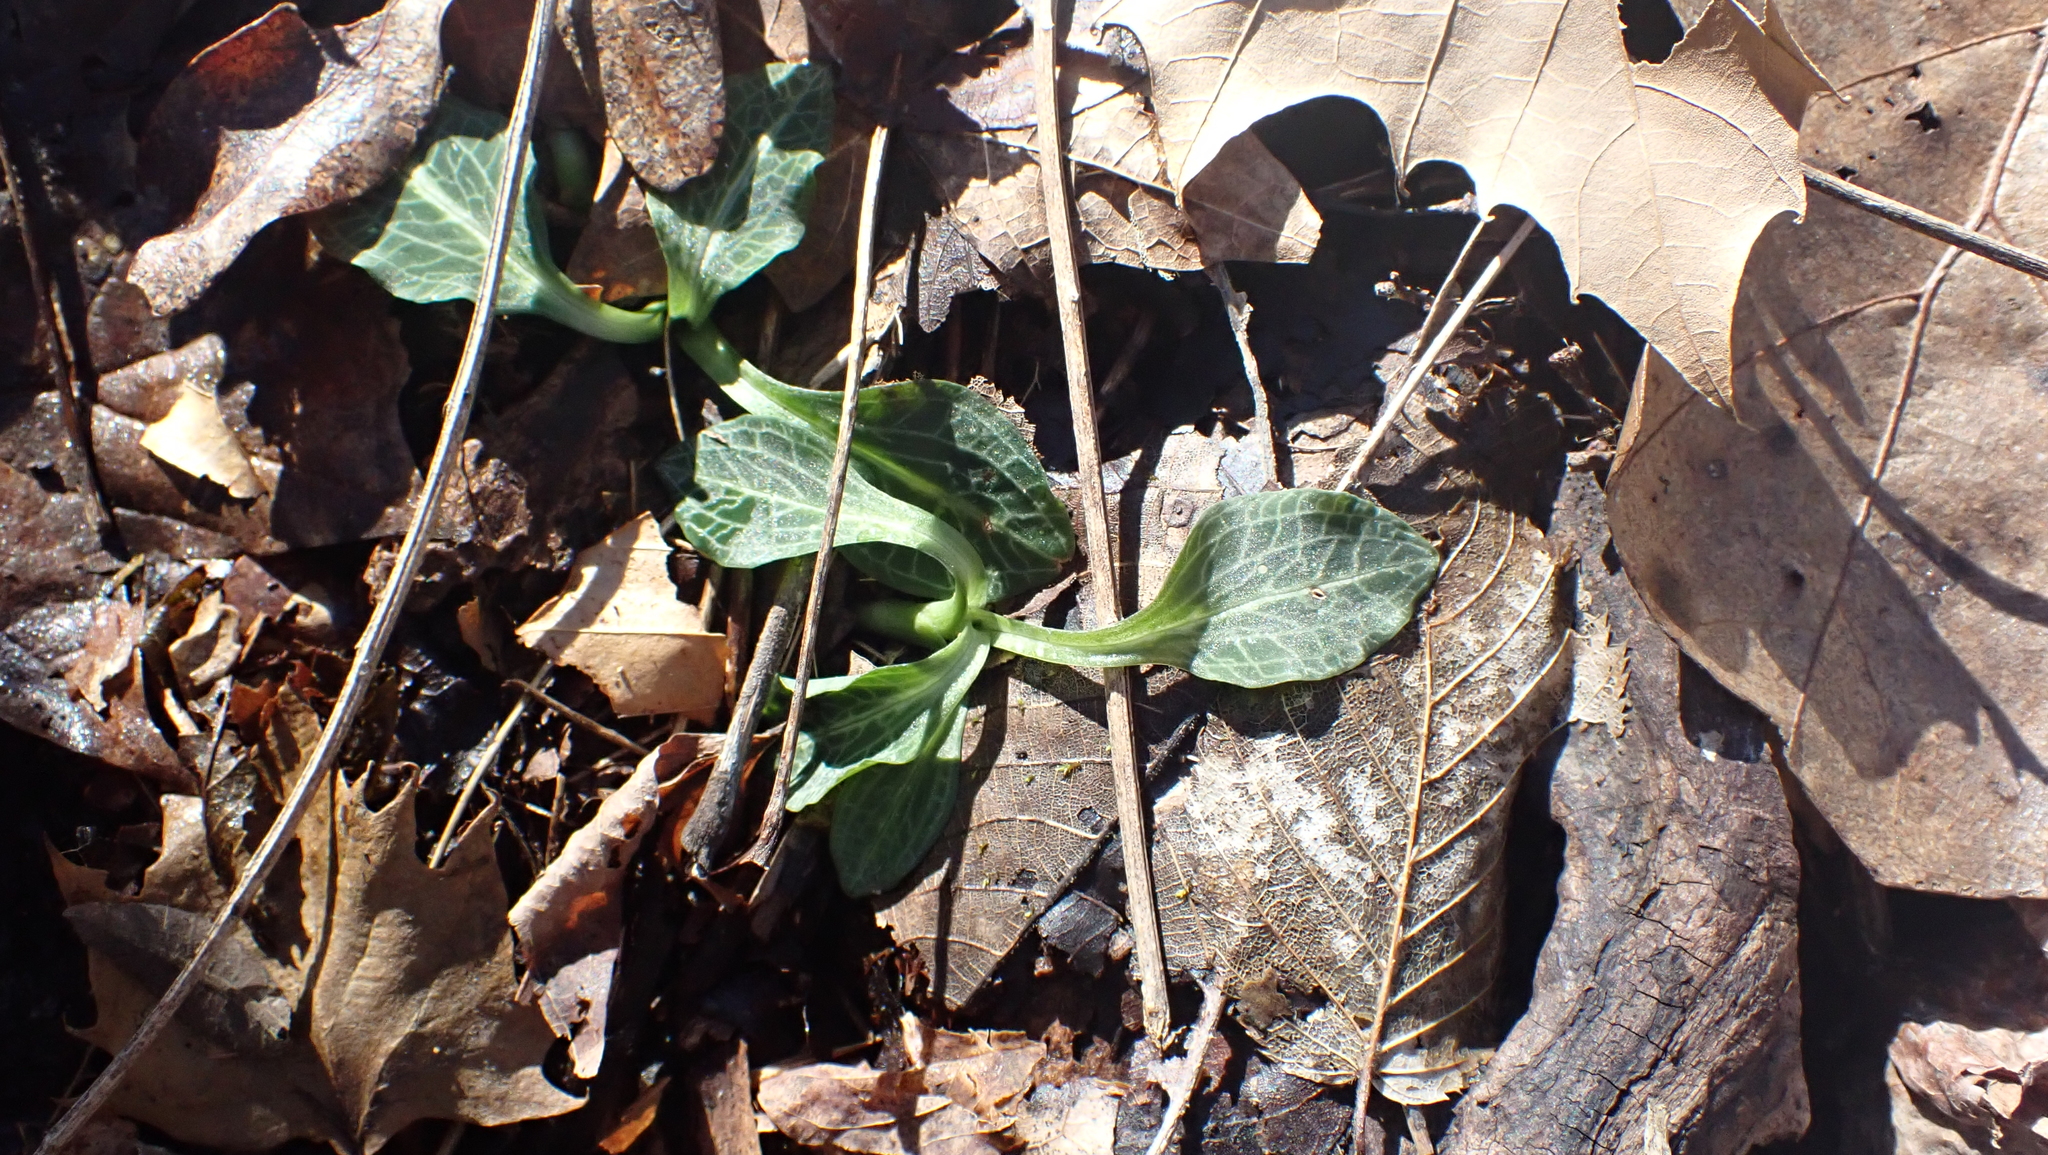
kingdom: Plantae
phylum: Tracheophyta
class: Liliopsida
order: Asparagales
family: Orchidaceae
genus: Goodyera
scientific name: Goodyera pubescens
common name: Downy rattlesnake-plantain
